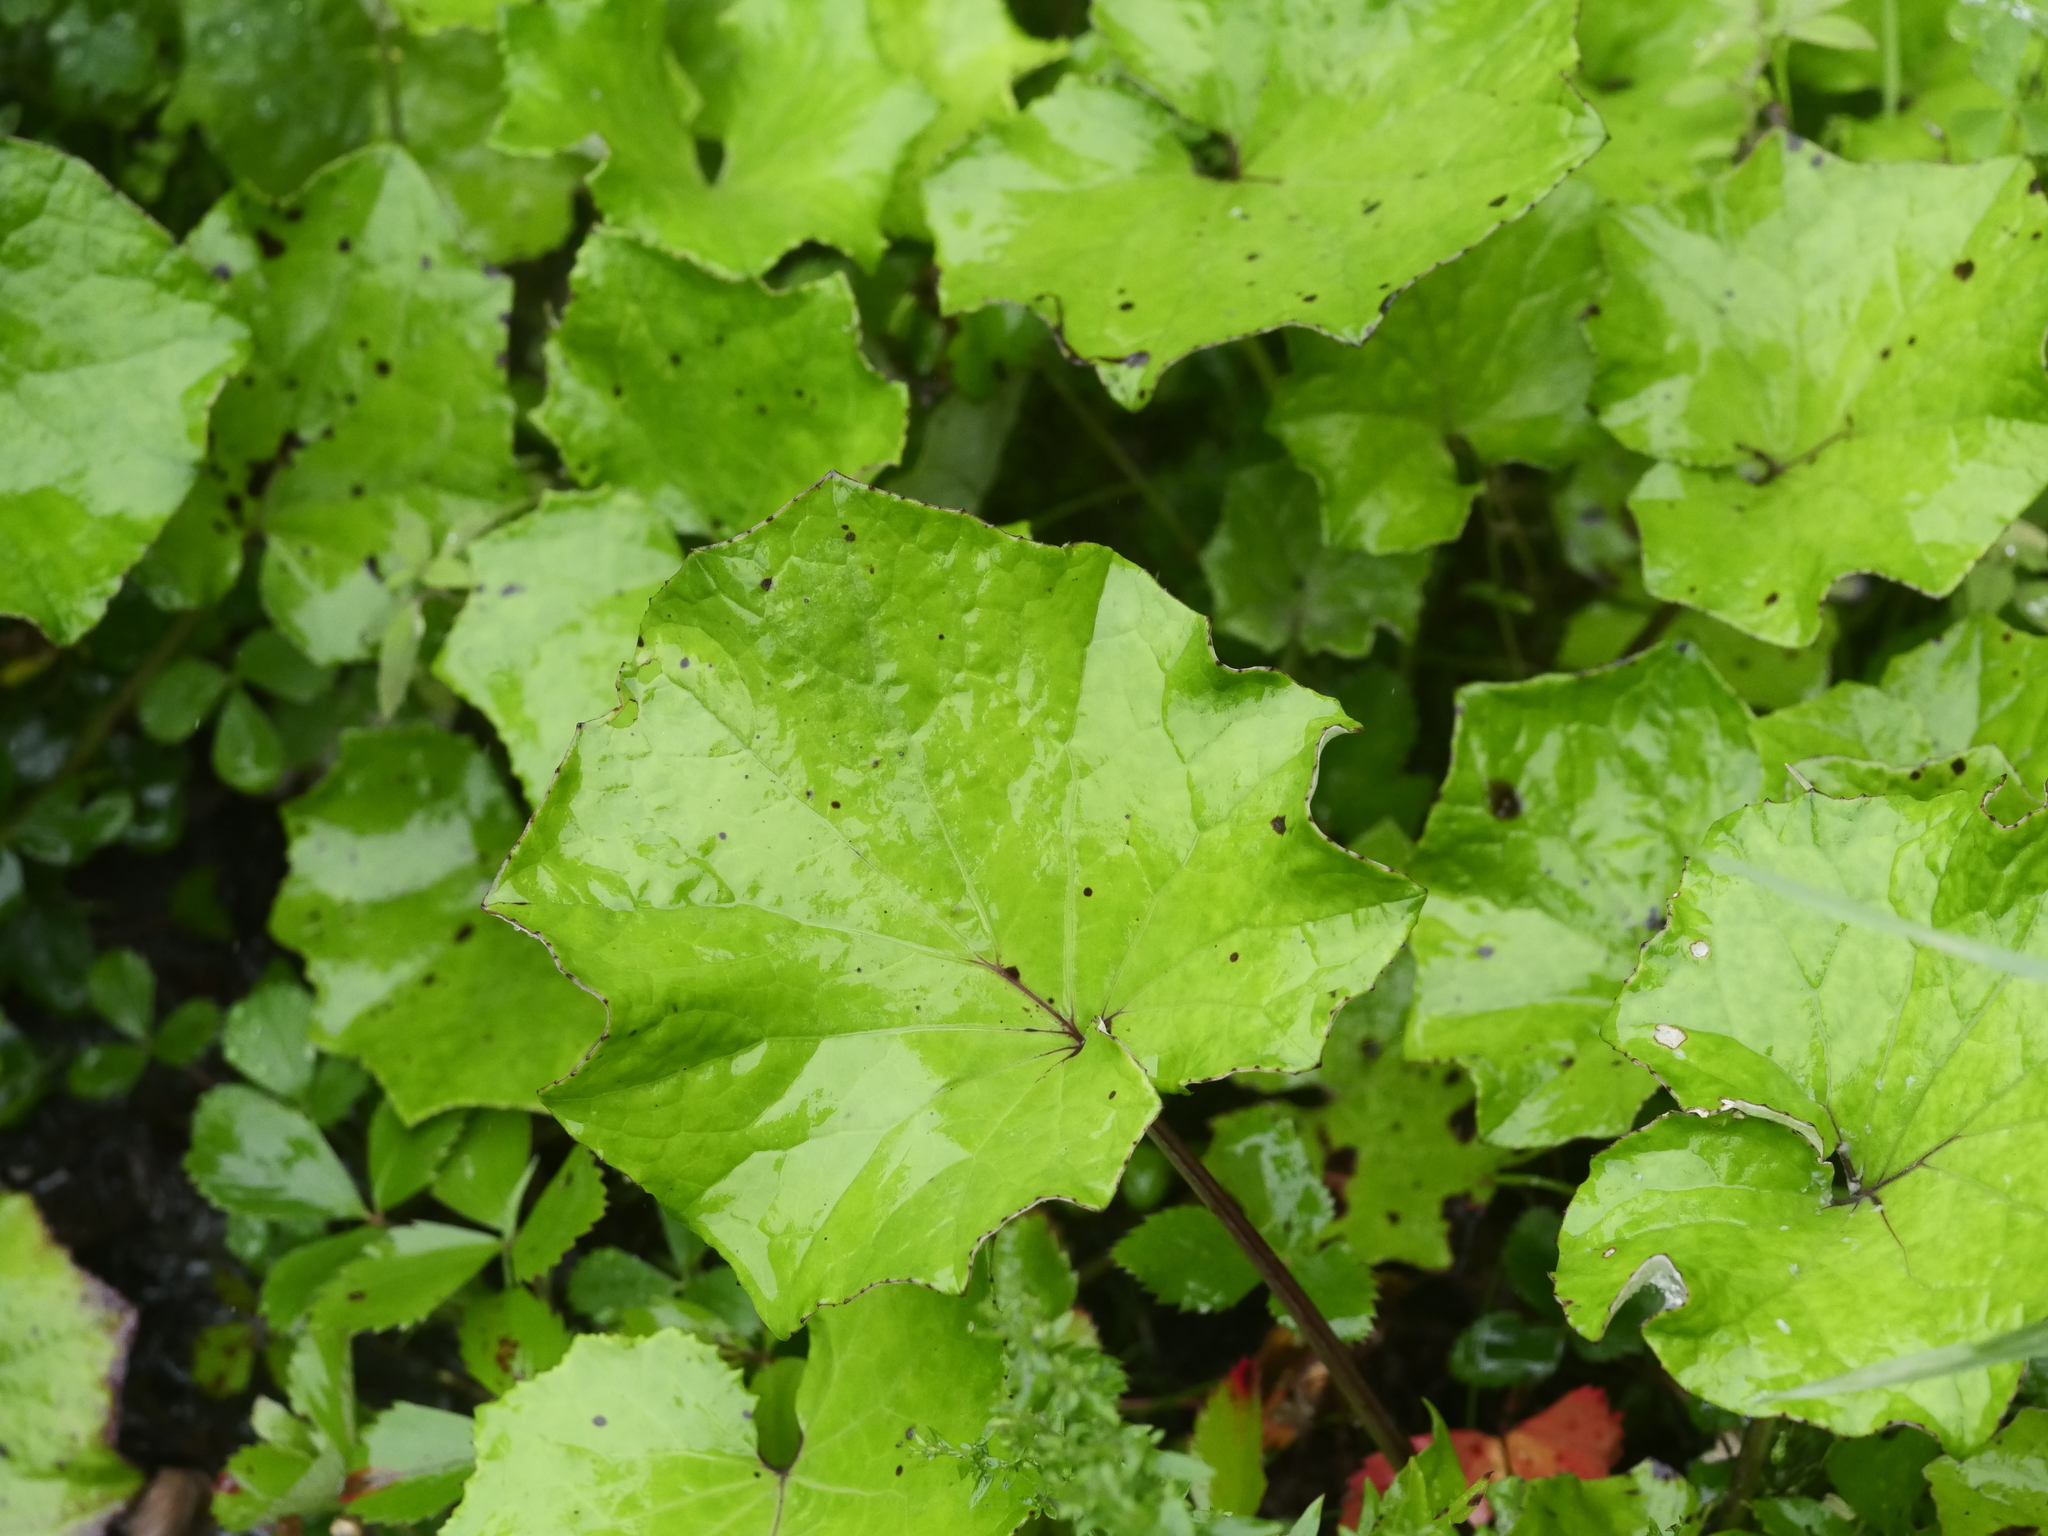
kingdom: Plantae
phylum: Tracheophyta
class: Magnoliopsida
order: Asterales
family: Asteraceae
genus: Tussilago
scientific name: Tussilago farfara
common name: Coltsfoot
